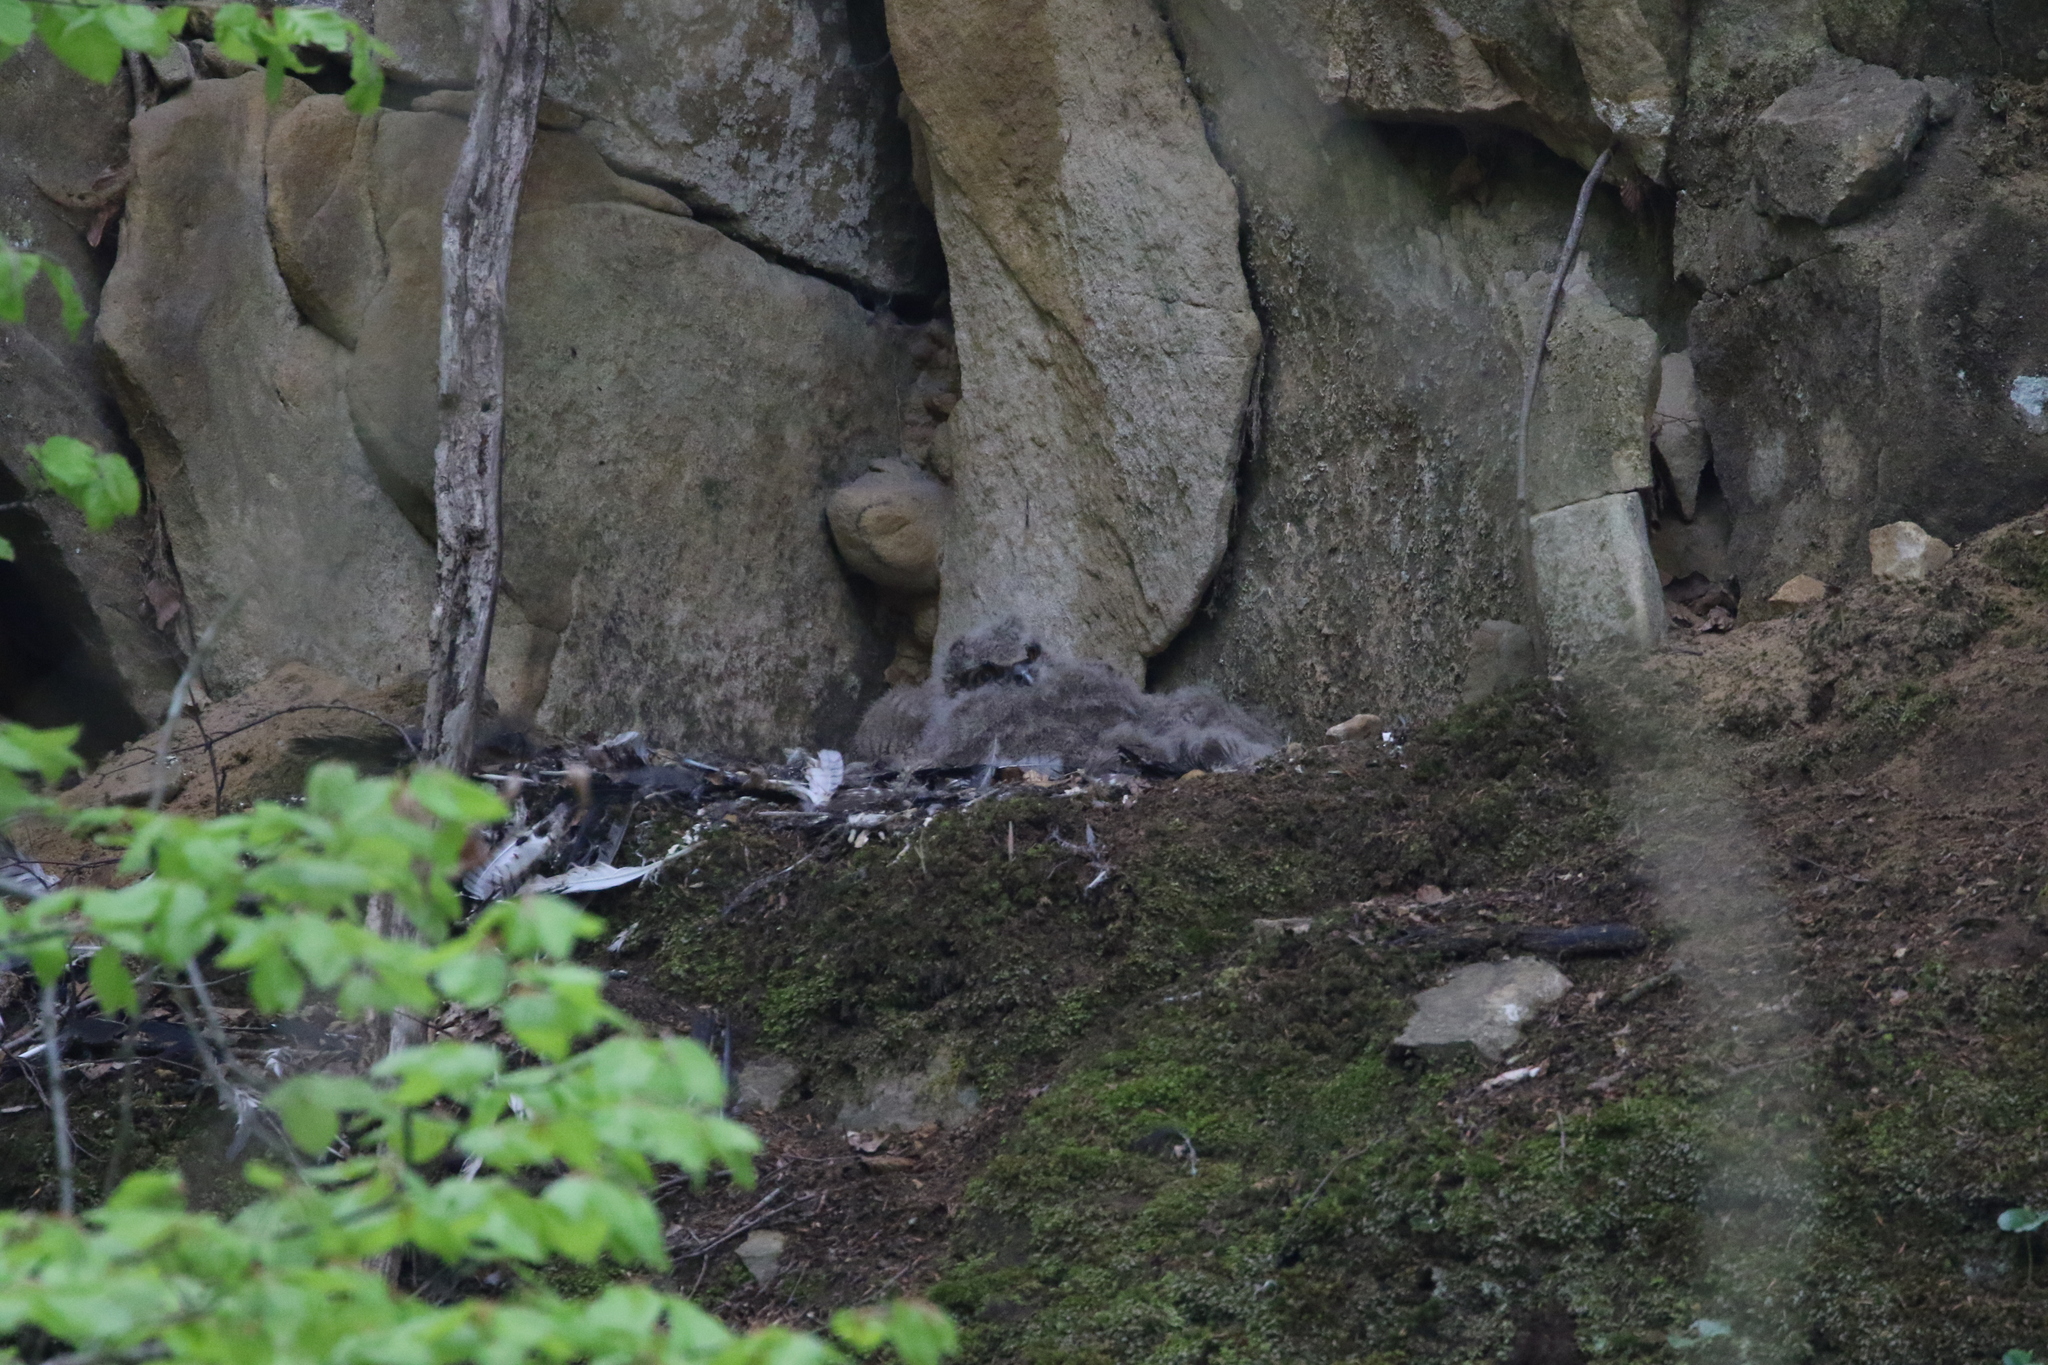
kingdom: Animalia
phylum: Chordata
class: Aves
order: Strigiformes
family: Strigidae
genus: Bubo
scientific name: Bubo bubo
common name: Eurasian eagle-owl
